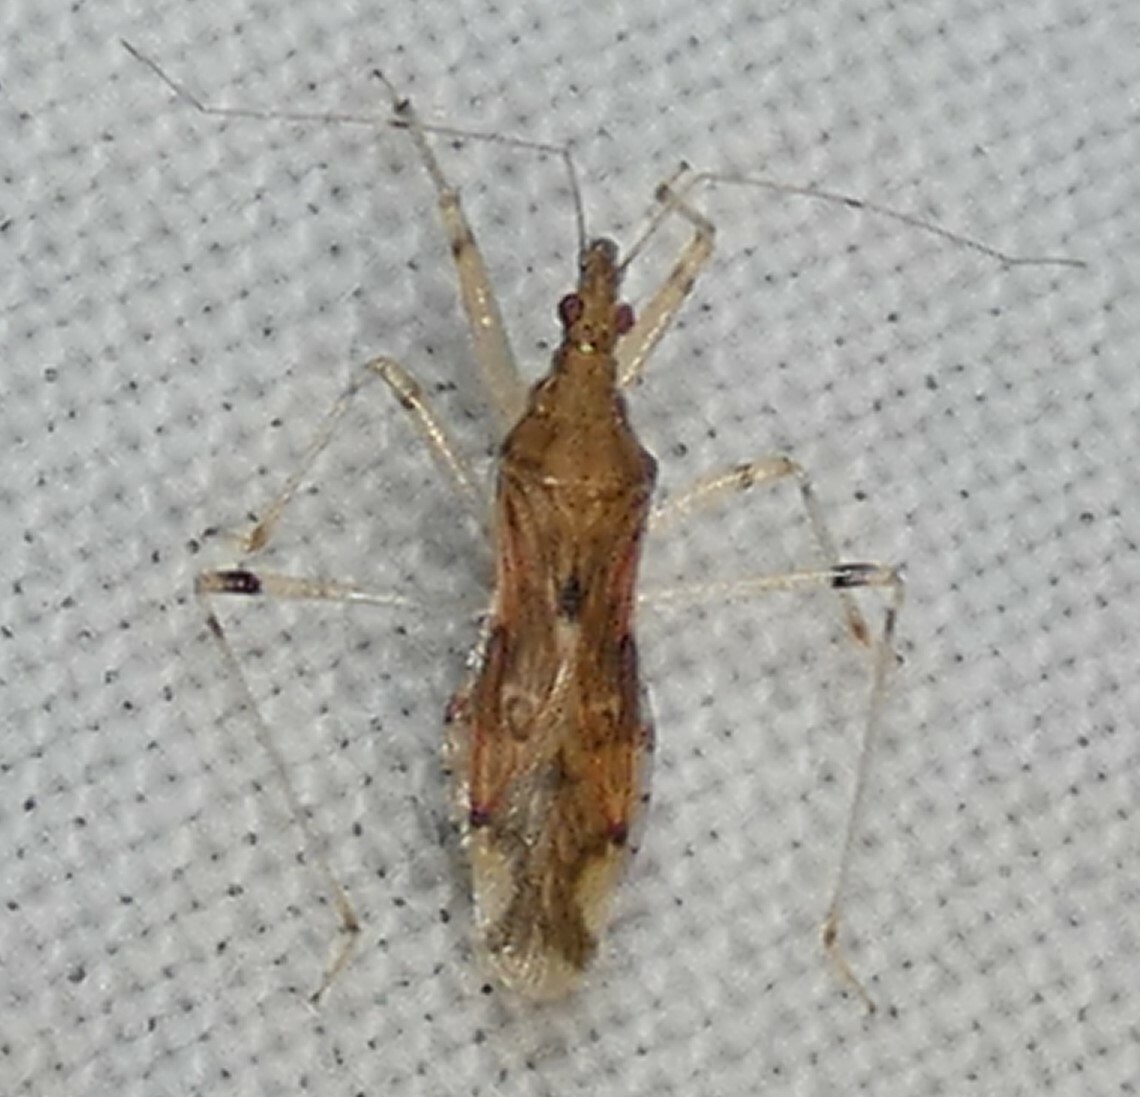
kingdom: Animalia
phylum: Arthropoda
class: Insecta
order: Hemiptera
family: Nabidae
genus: Lasiomerus
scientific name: Lasiomerus annulatus
